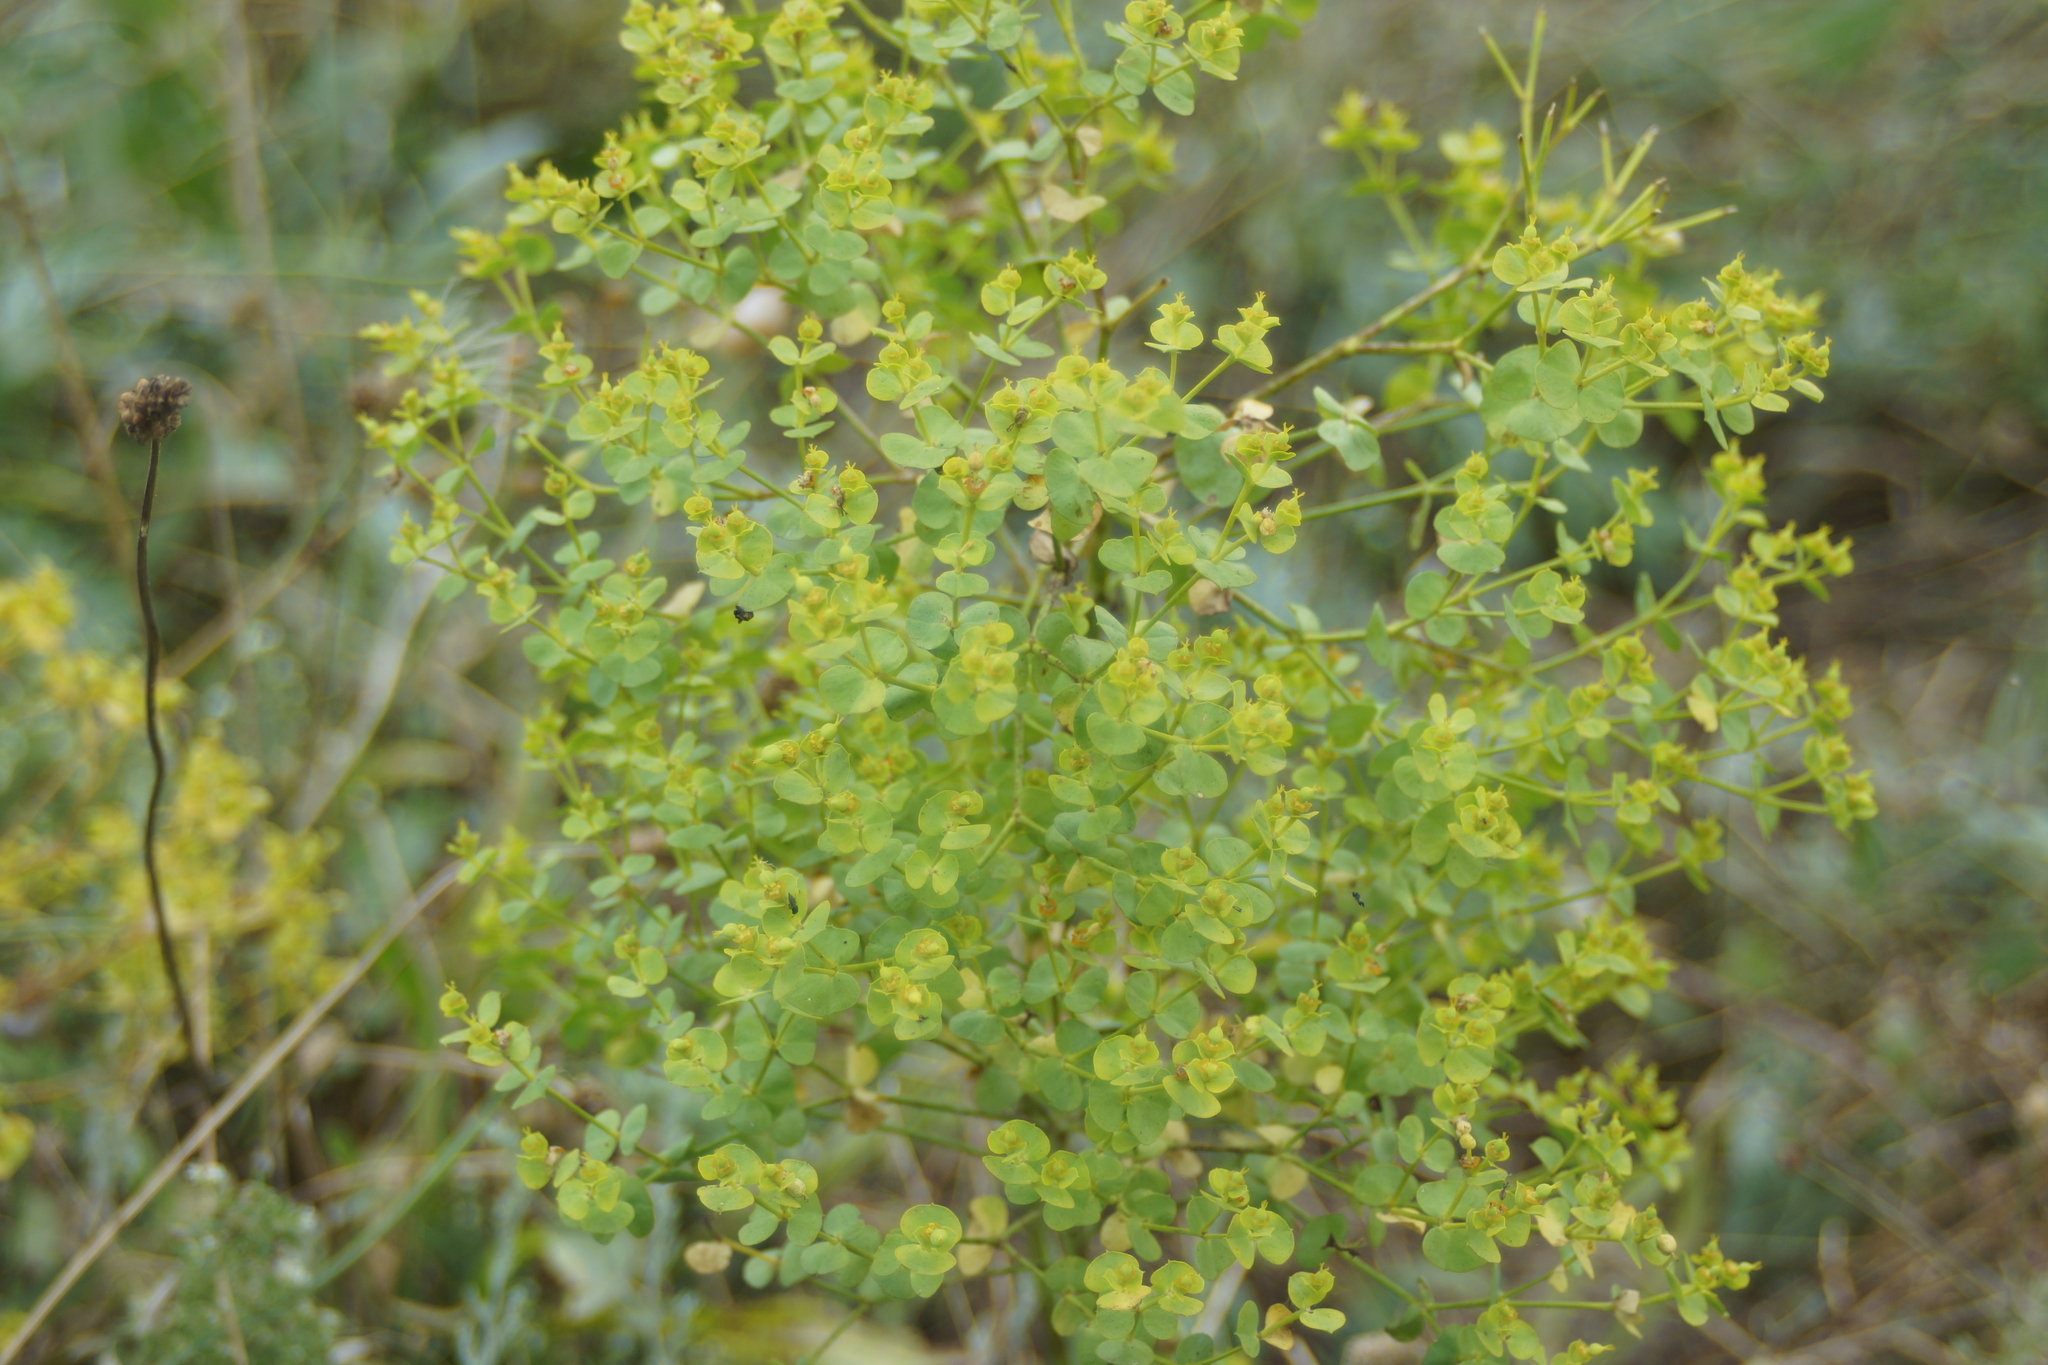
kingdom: Plantae
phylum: Tracheophyta
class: Magnoliopsida
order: Malpighiales
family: Euphorbiaceae
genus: Euphorbia
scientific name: Euphorbia virgata
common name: Leafy spurge
